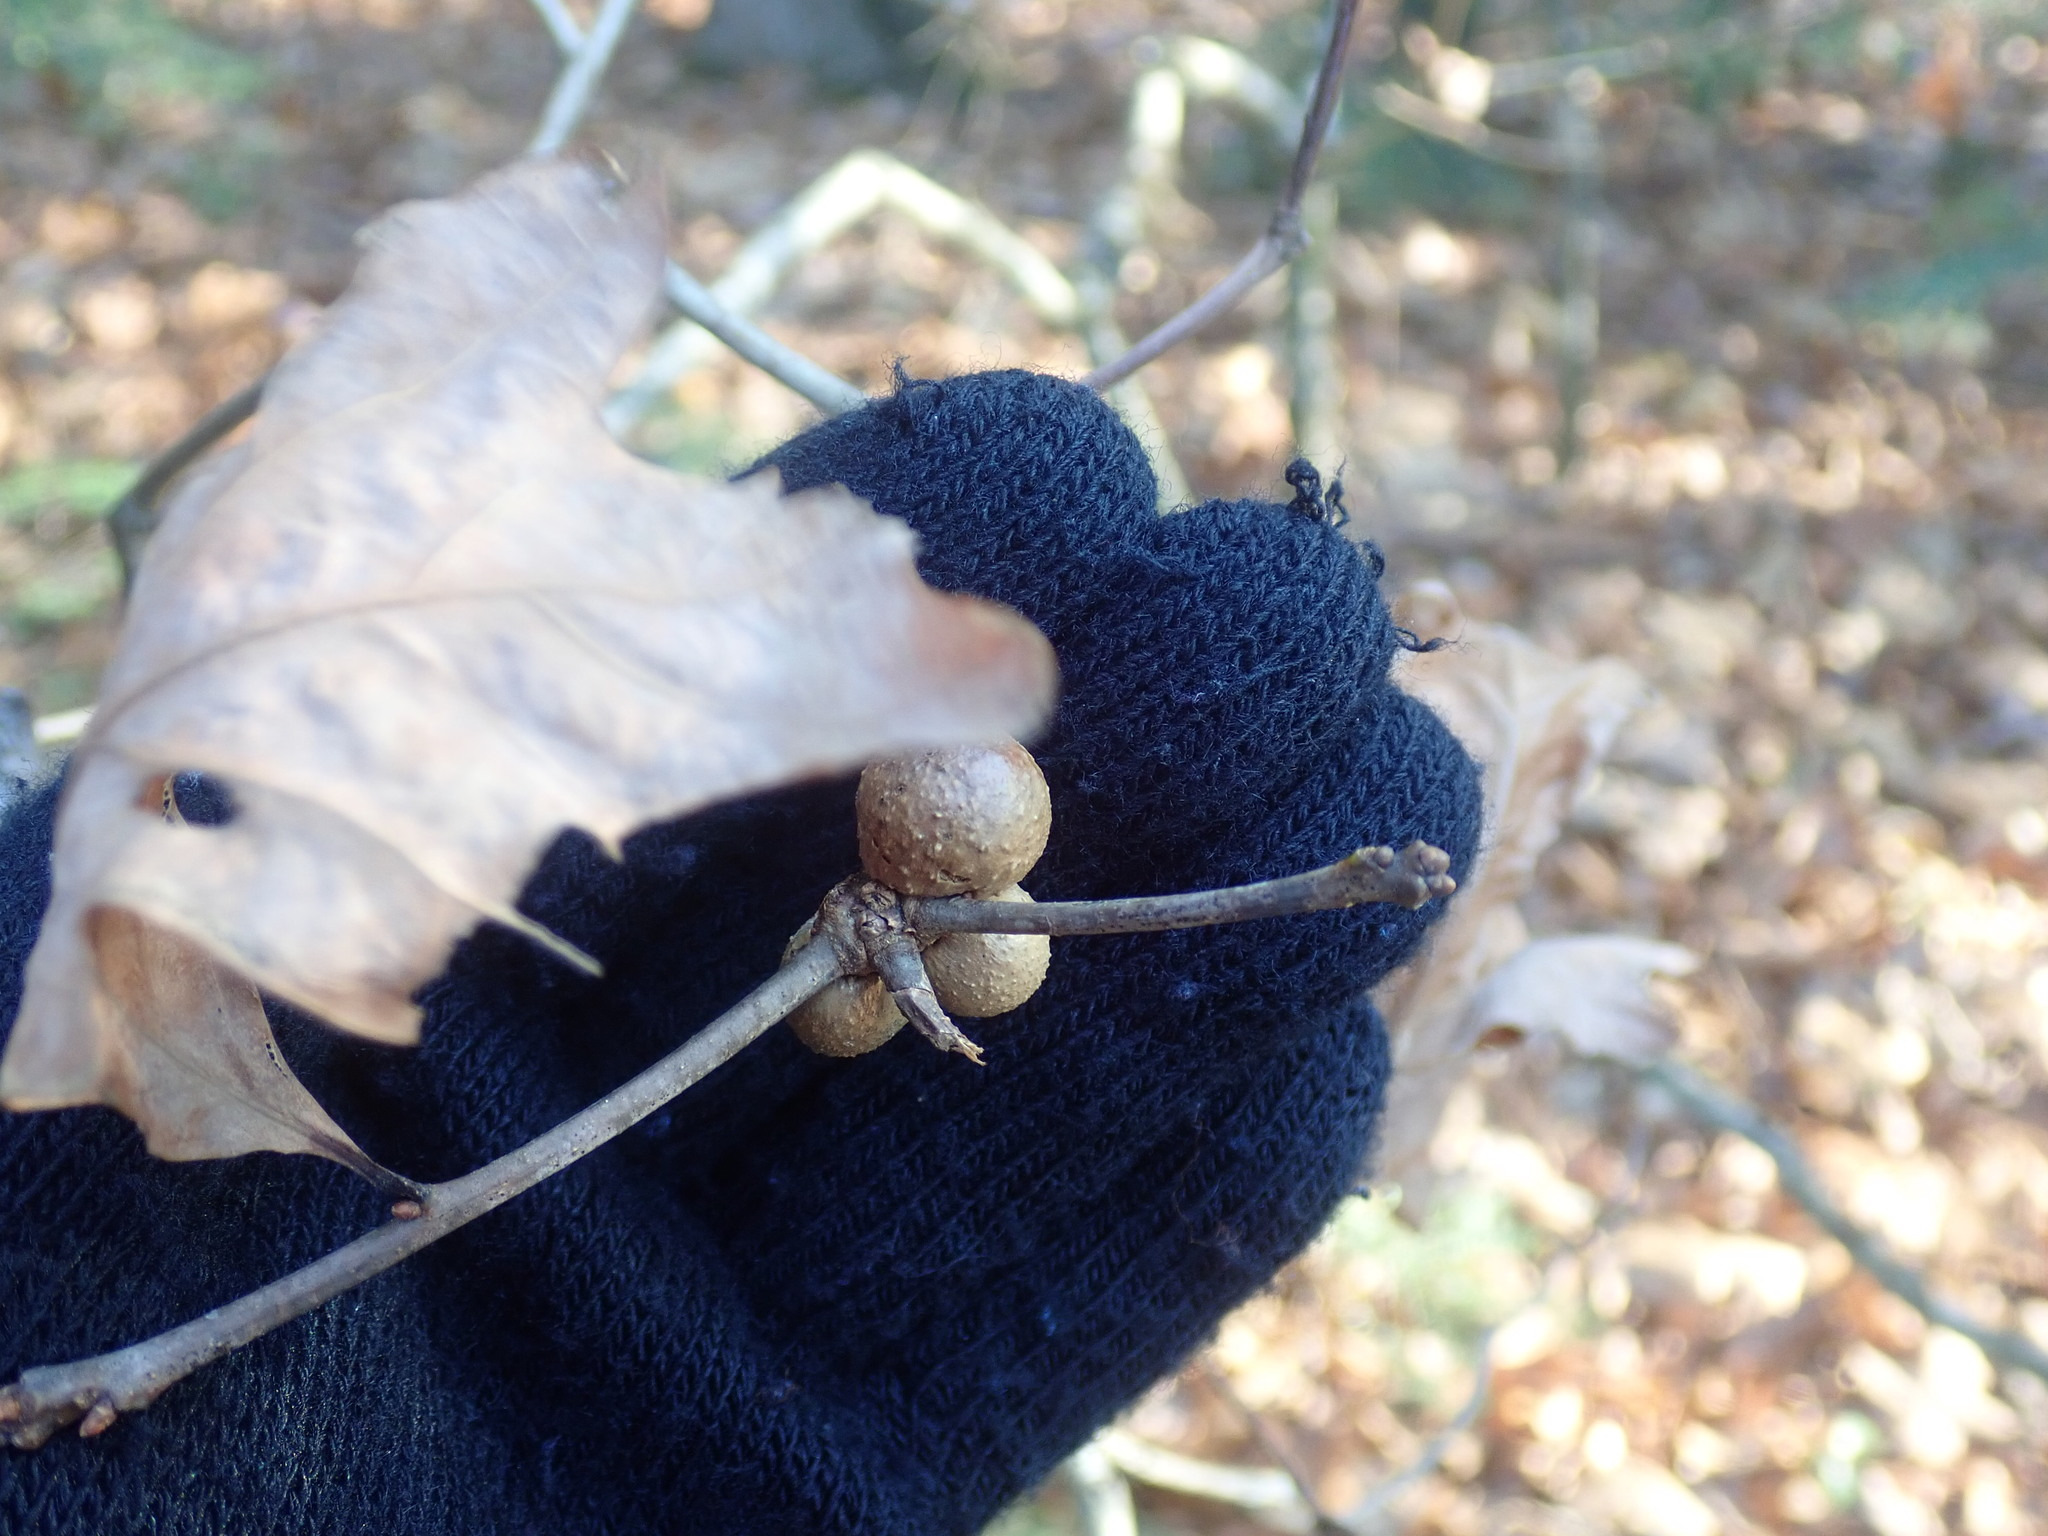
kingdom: Animalia
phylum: Arthropoda
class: Insecta
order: Hymenoptera
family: Cynipidae
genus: Disholcaspis
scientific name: Disholcaspis quercusglobulus
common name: Round bullet gall wasp
